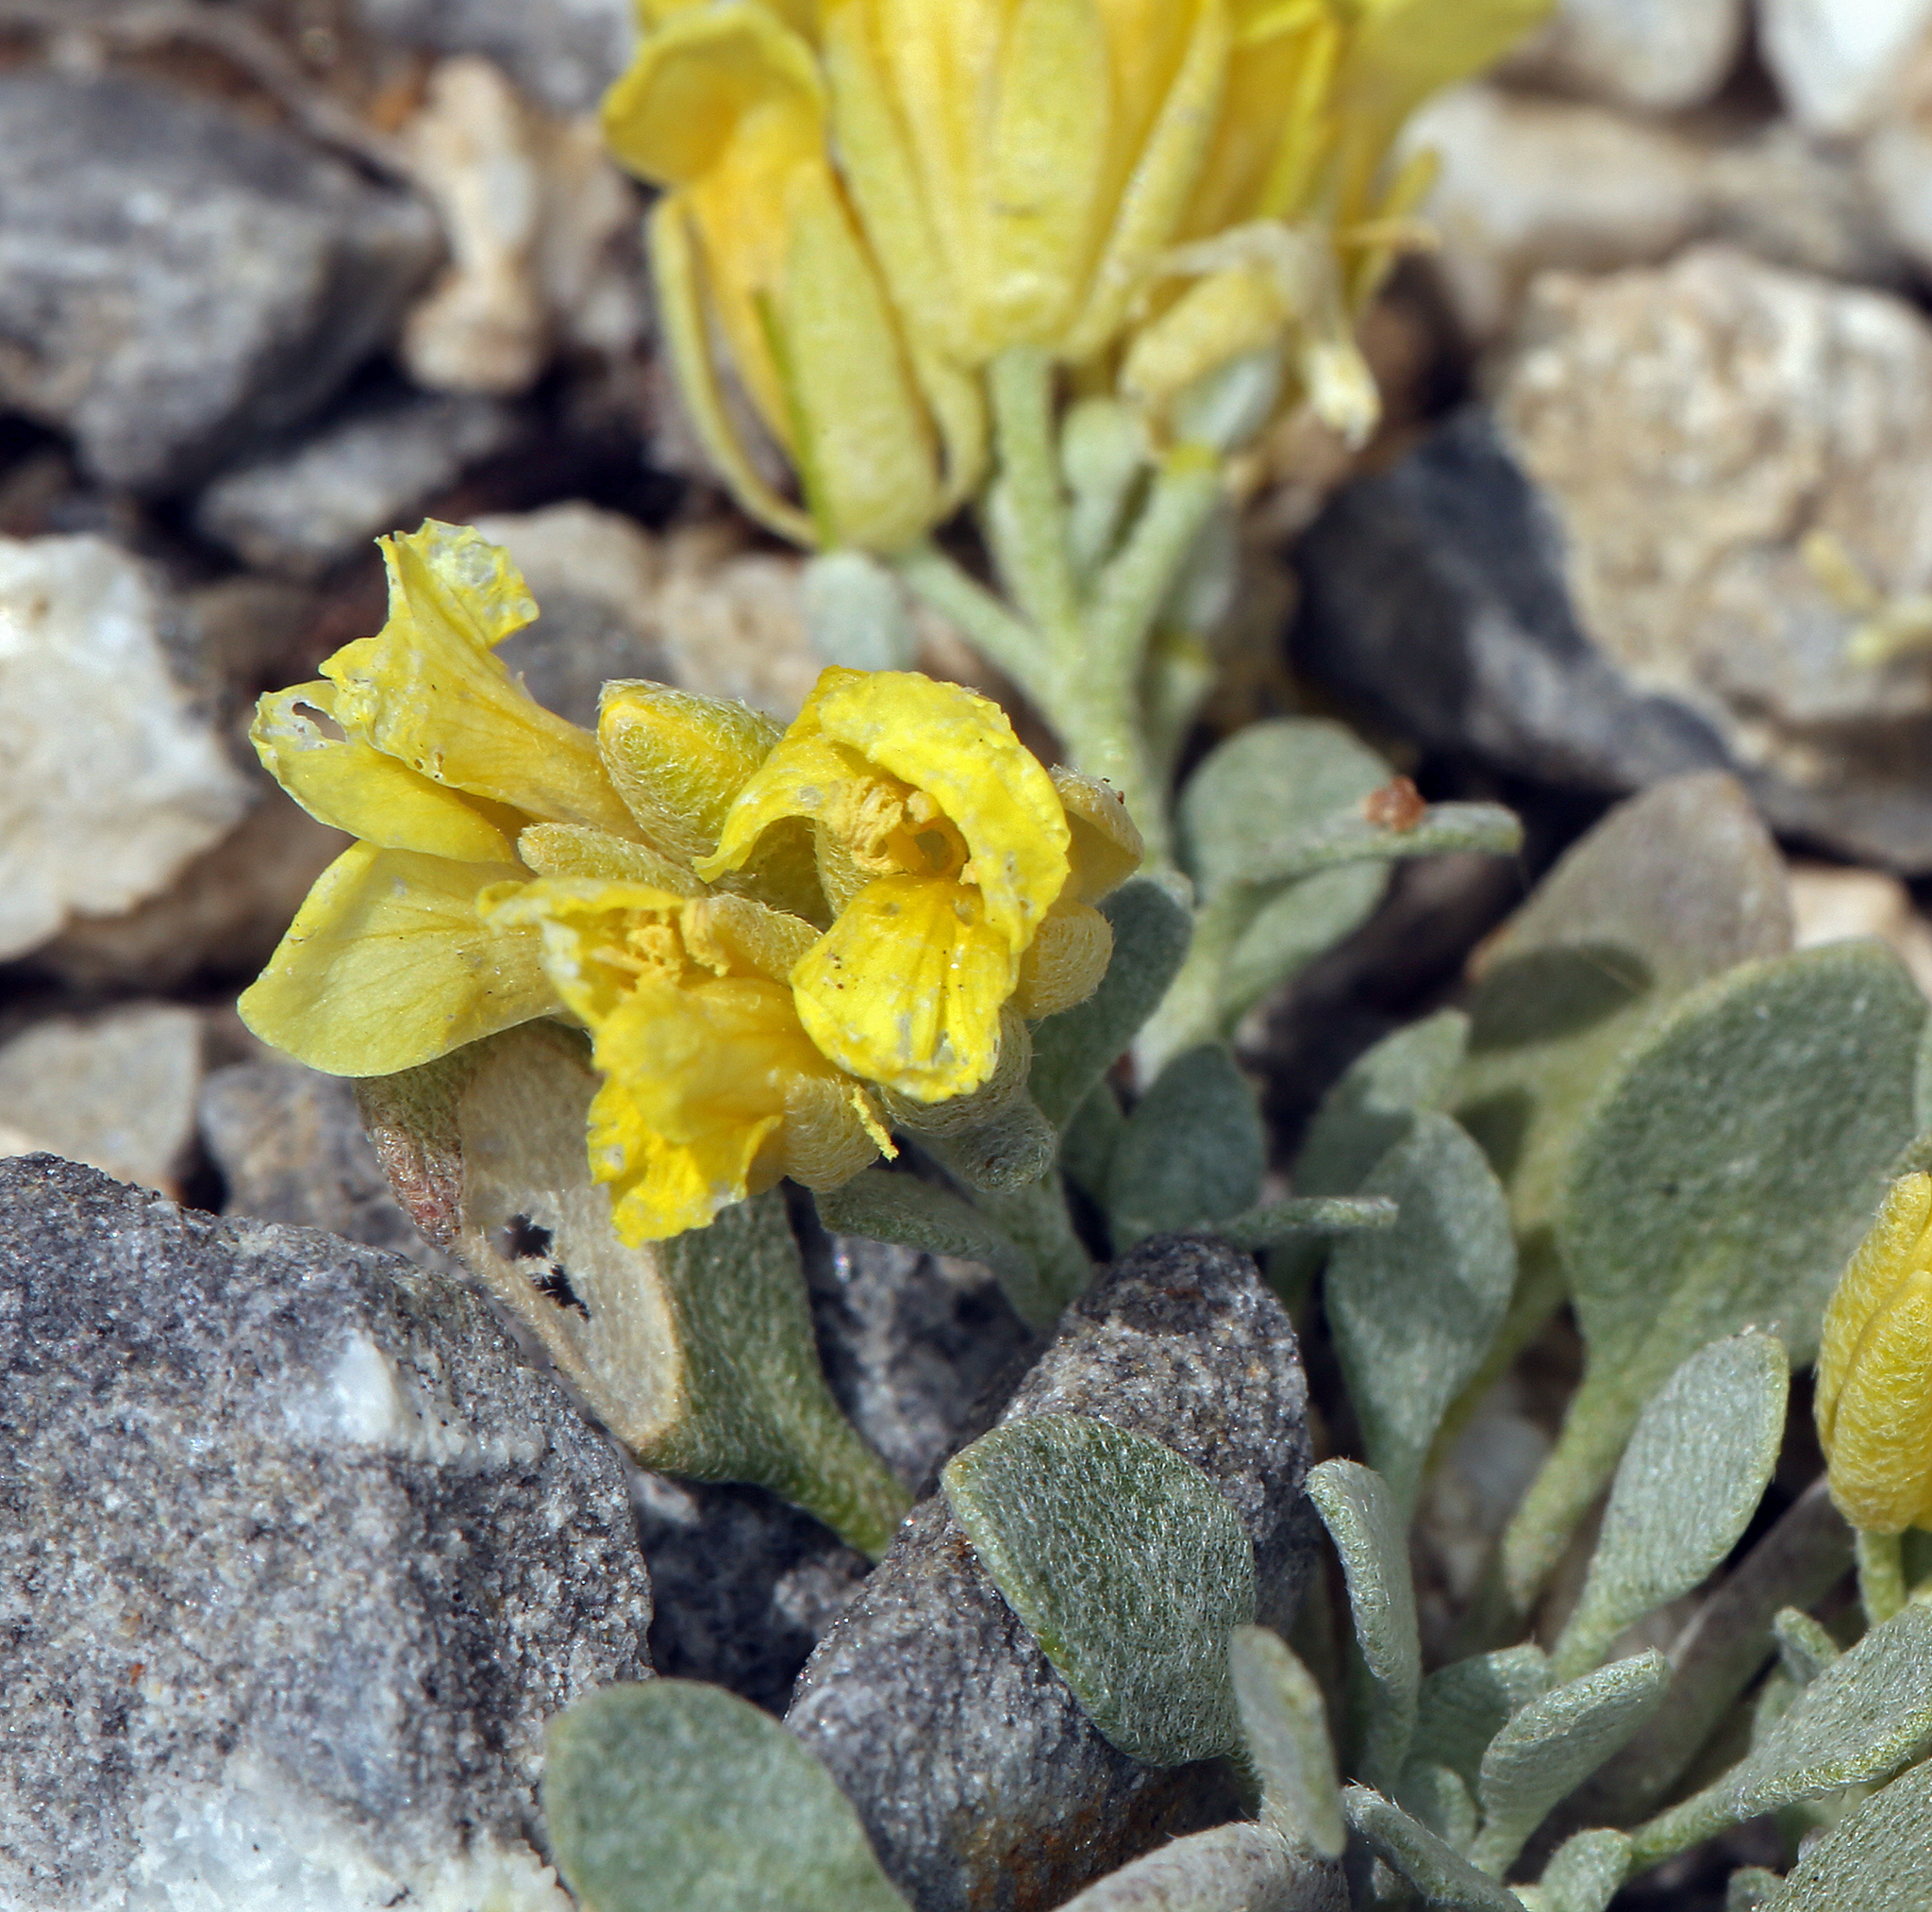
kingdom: Plantae
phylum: Tracheophyta
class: Magnoliopsida
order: Brassicales
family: Brassicaceae
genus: Physaria
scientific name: Physaria kingii
